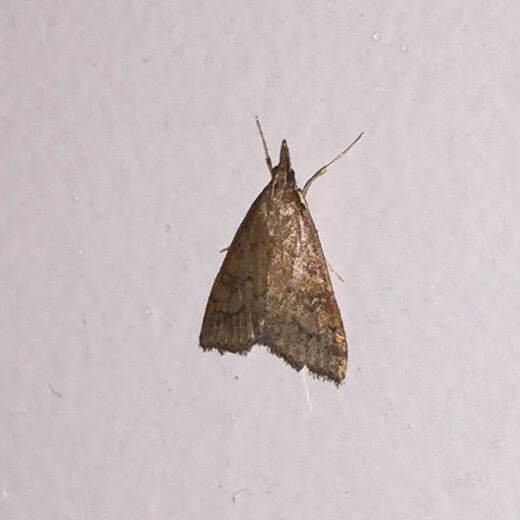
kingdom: Animalia
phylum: Arthropoda
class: Insecta
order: Lepidoptera
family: Crambidae
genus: Udea
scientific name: Udea rubigalis
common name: Celery leaftier moth
